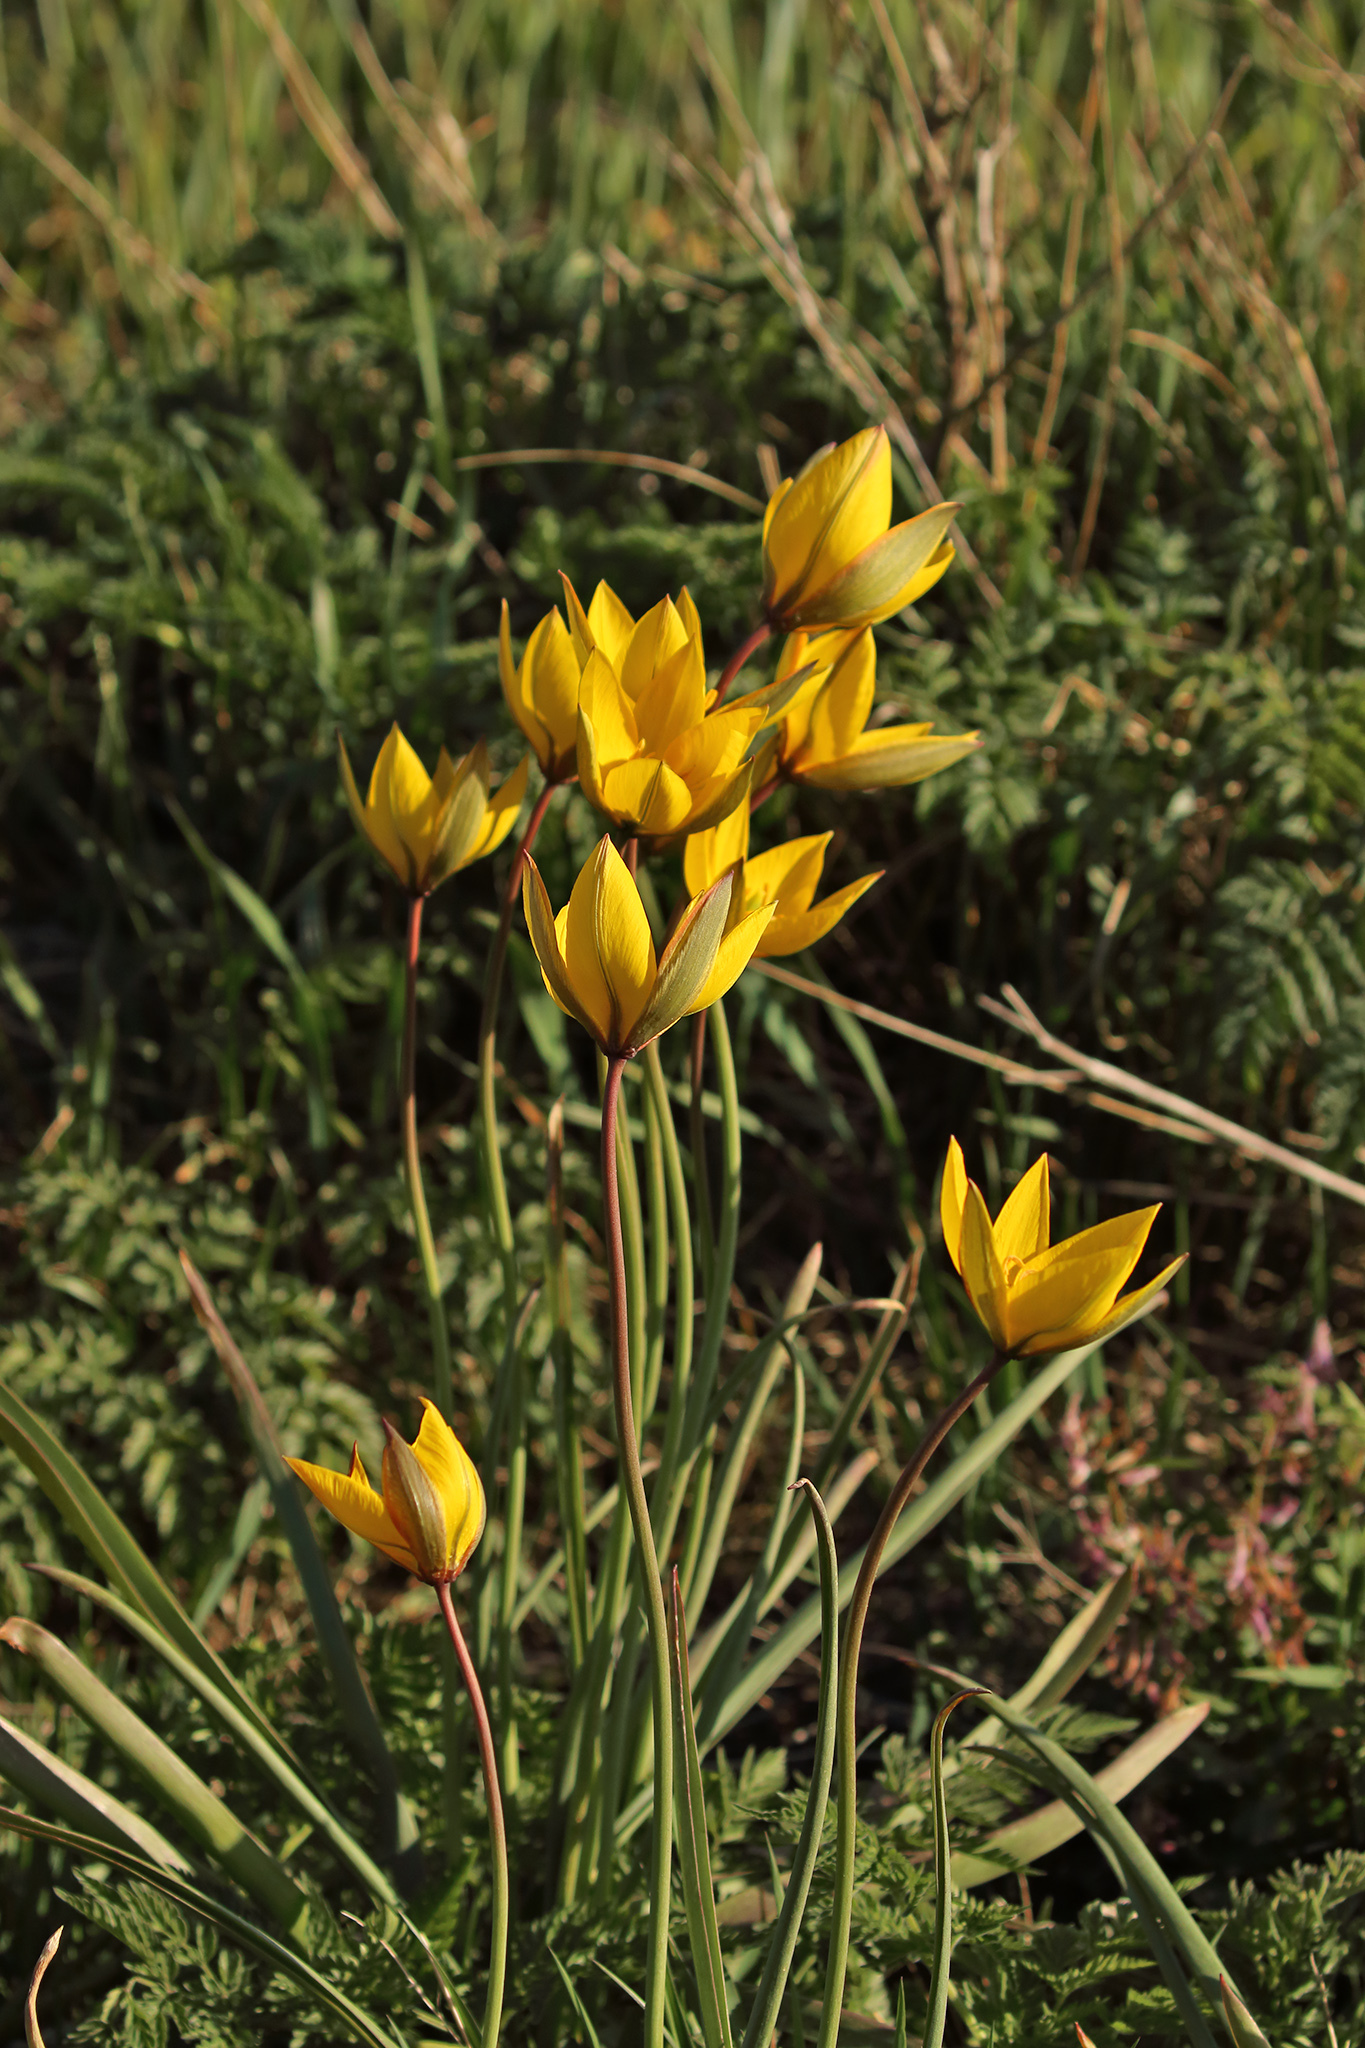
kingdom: Plantae
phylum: Tracheophyta
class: Liliopsida
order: Liliales
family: Liliaceae
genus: Tulipa
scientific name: Tulipa sylvestris
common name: Wild tulip
